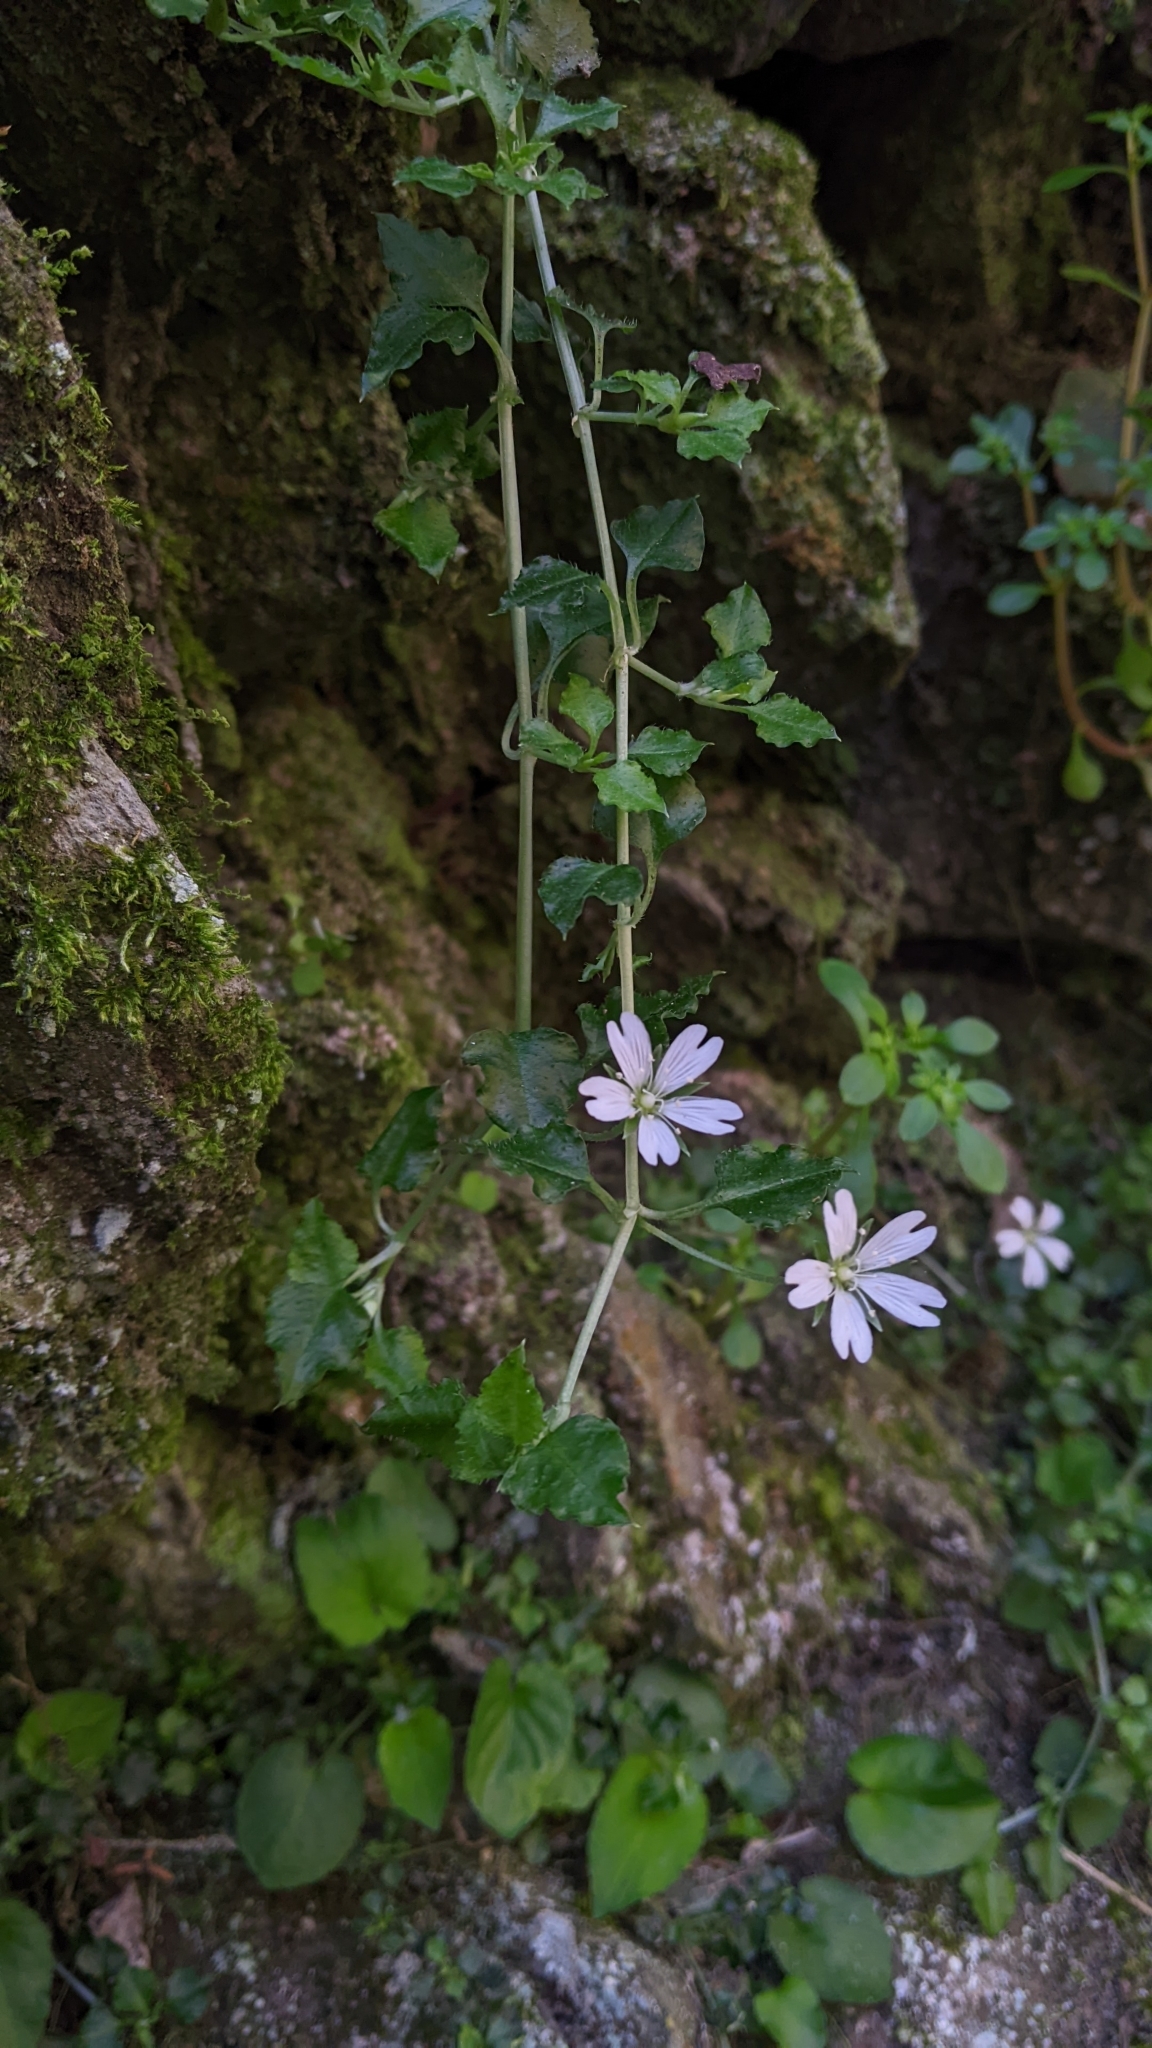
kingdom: Plantae
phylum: Tracheophyta
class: Magnoliopsida
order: Caryophyllales
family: Caryophyllaceae
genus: Nubelaria
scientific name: Nubelaria arisanensis
